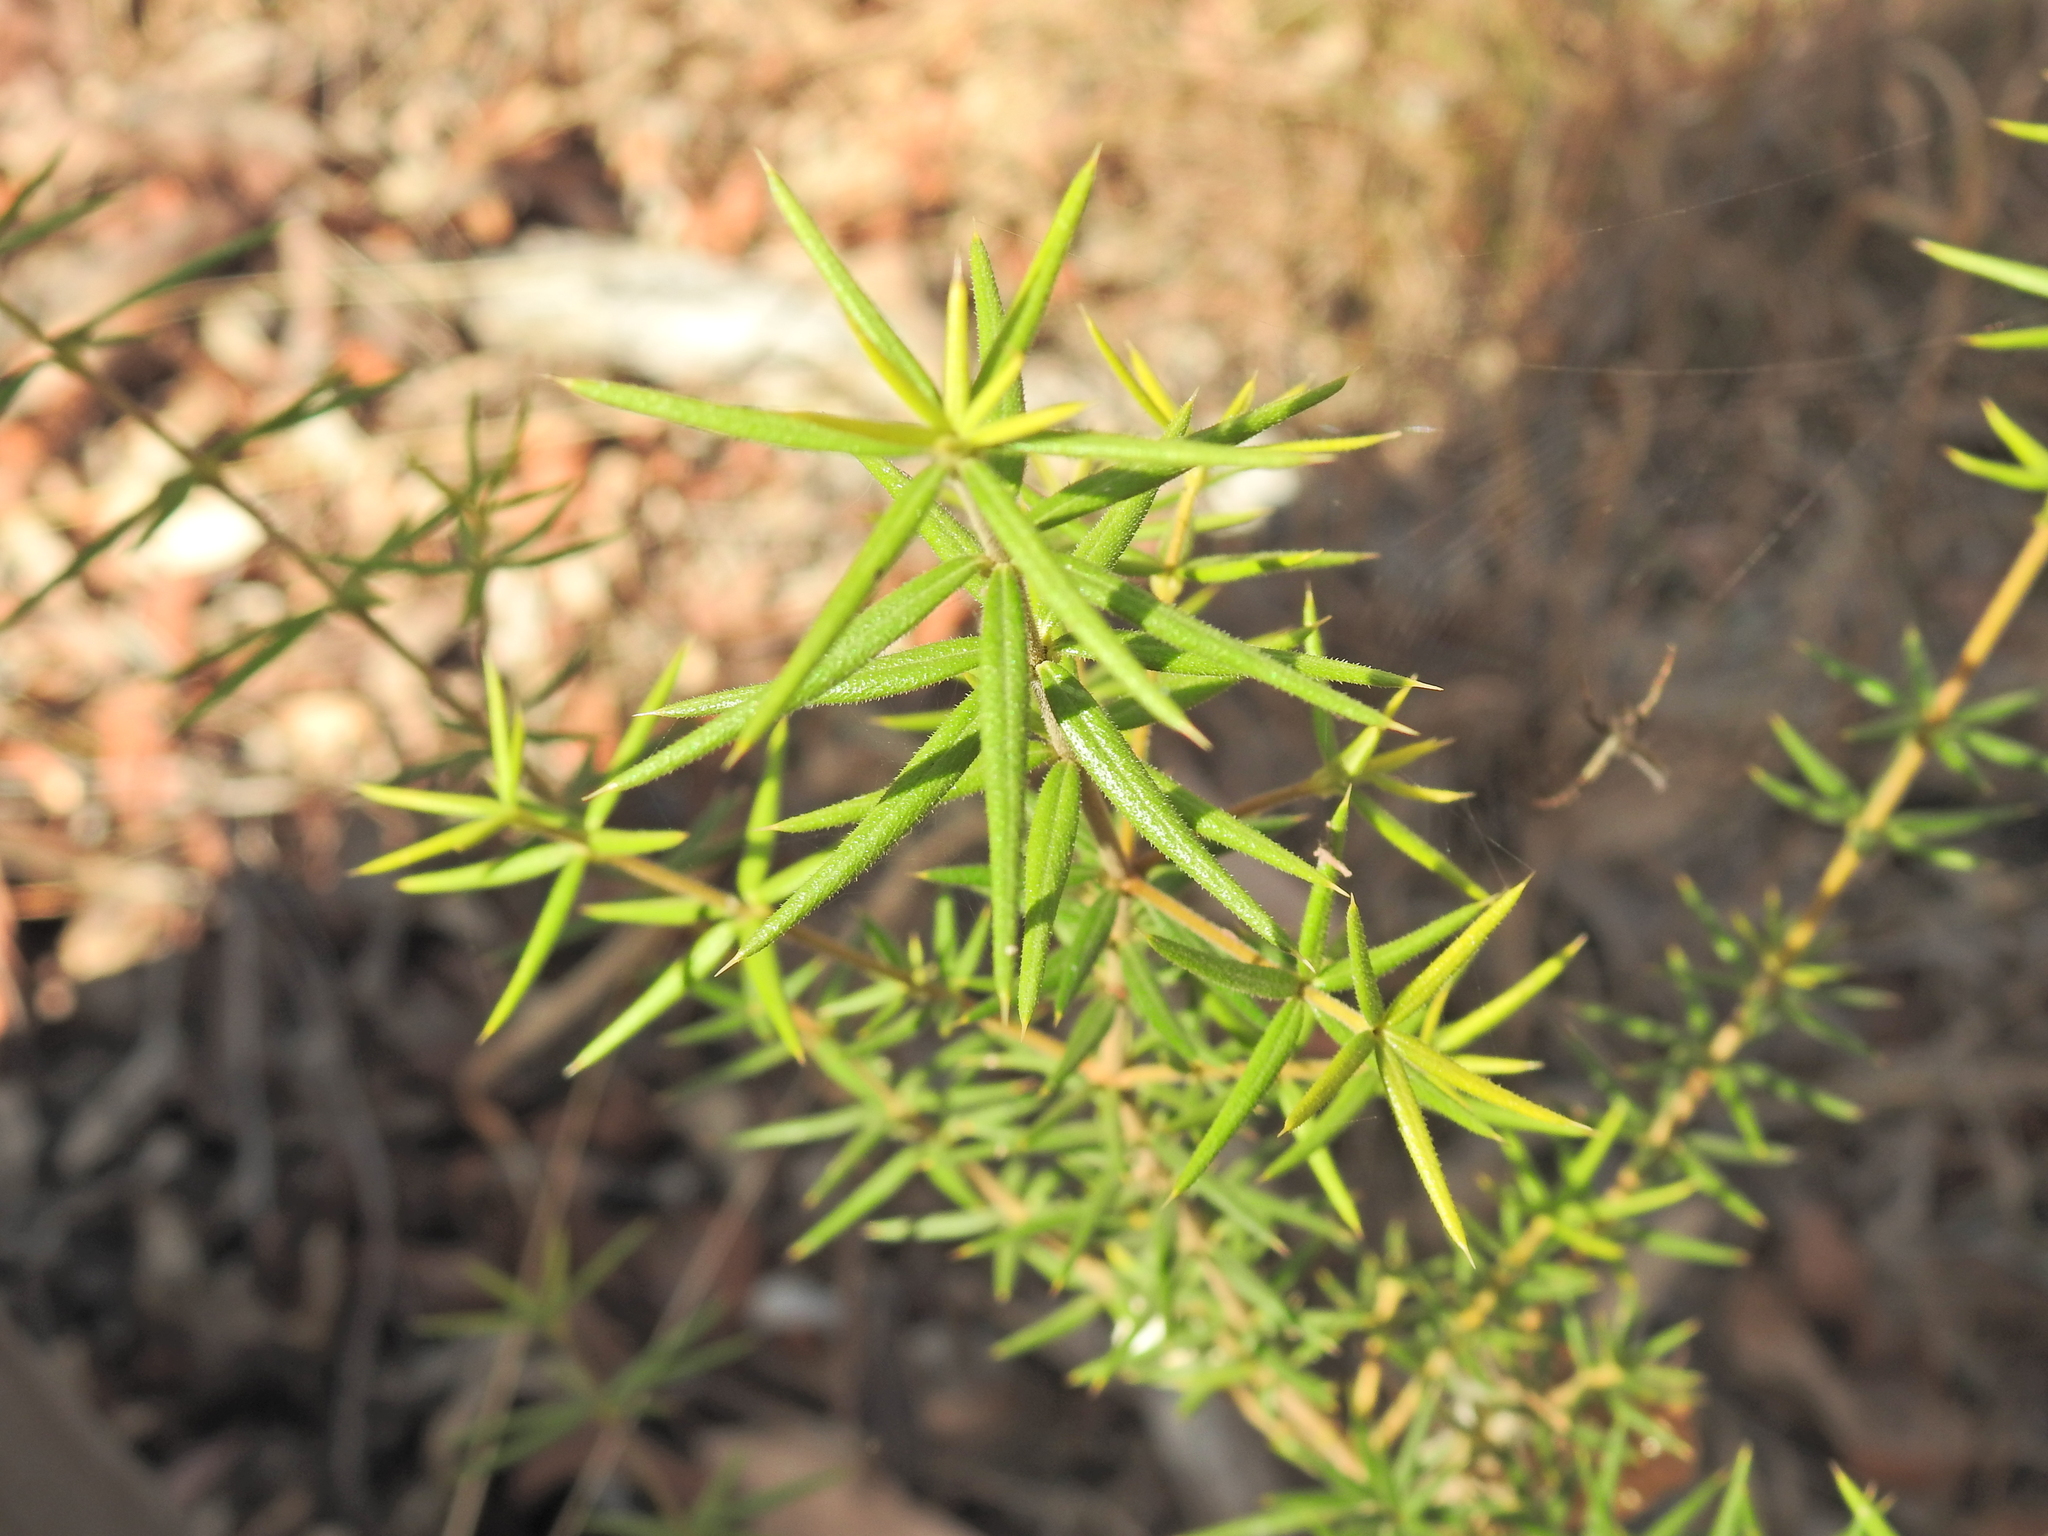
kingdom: Plantae
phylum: Tracheophyta
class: Magnoliopsida
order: Gentianales
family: Apocynaceae
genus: Alyxia
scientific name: Alyxia ruscifolia
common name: Chainfruit
